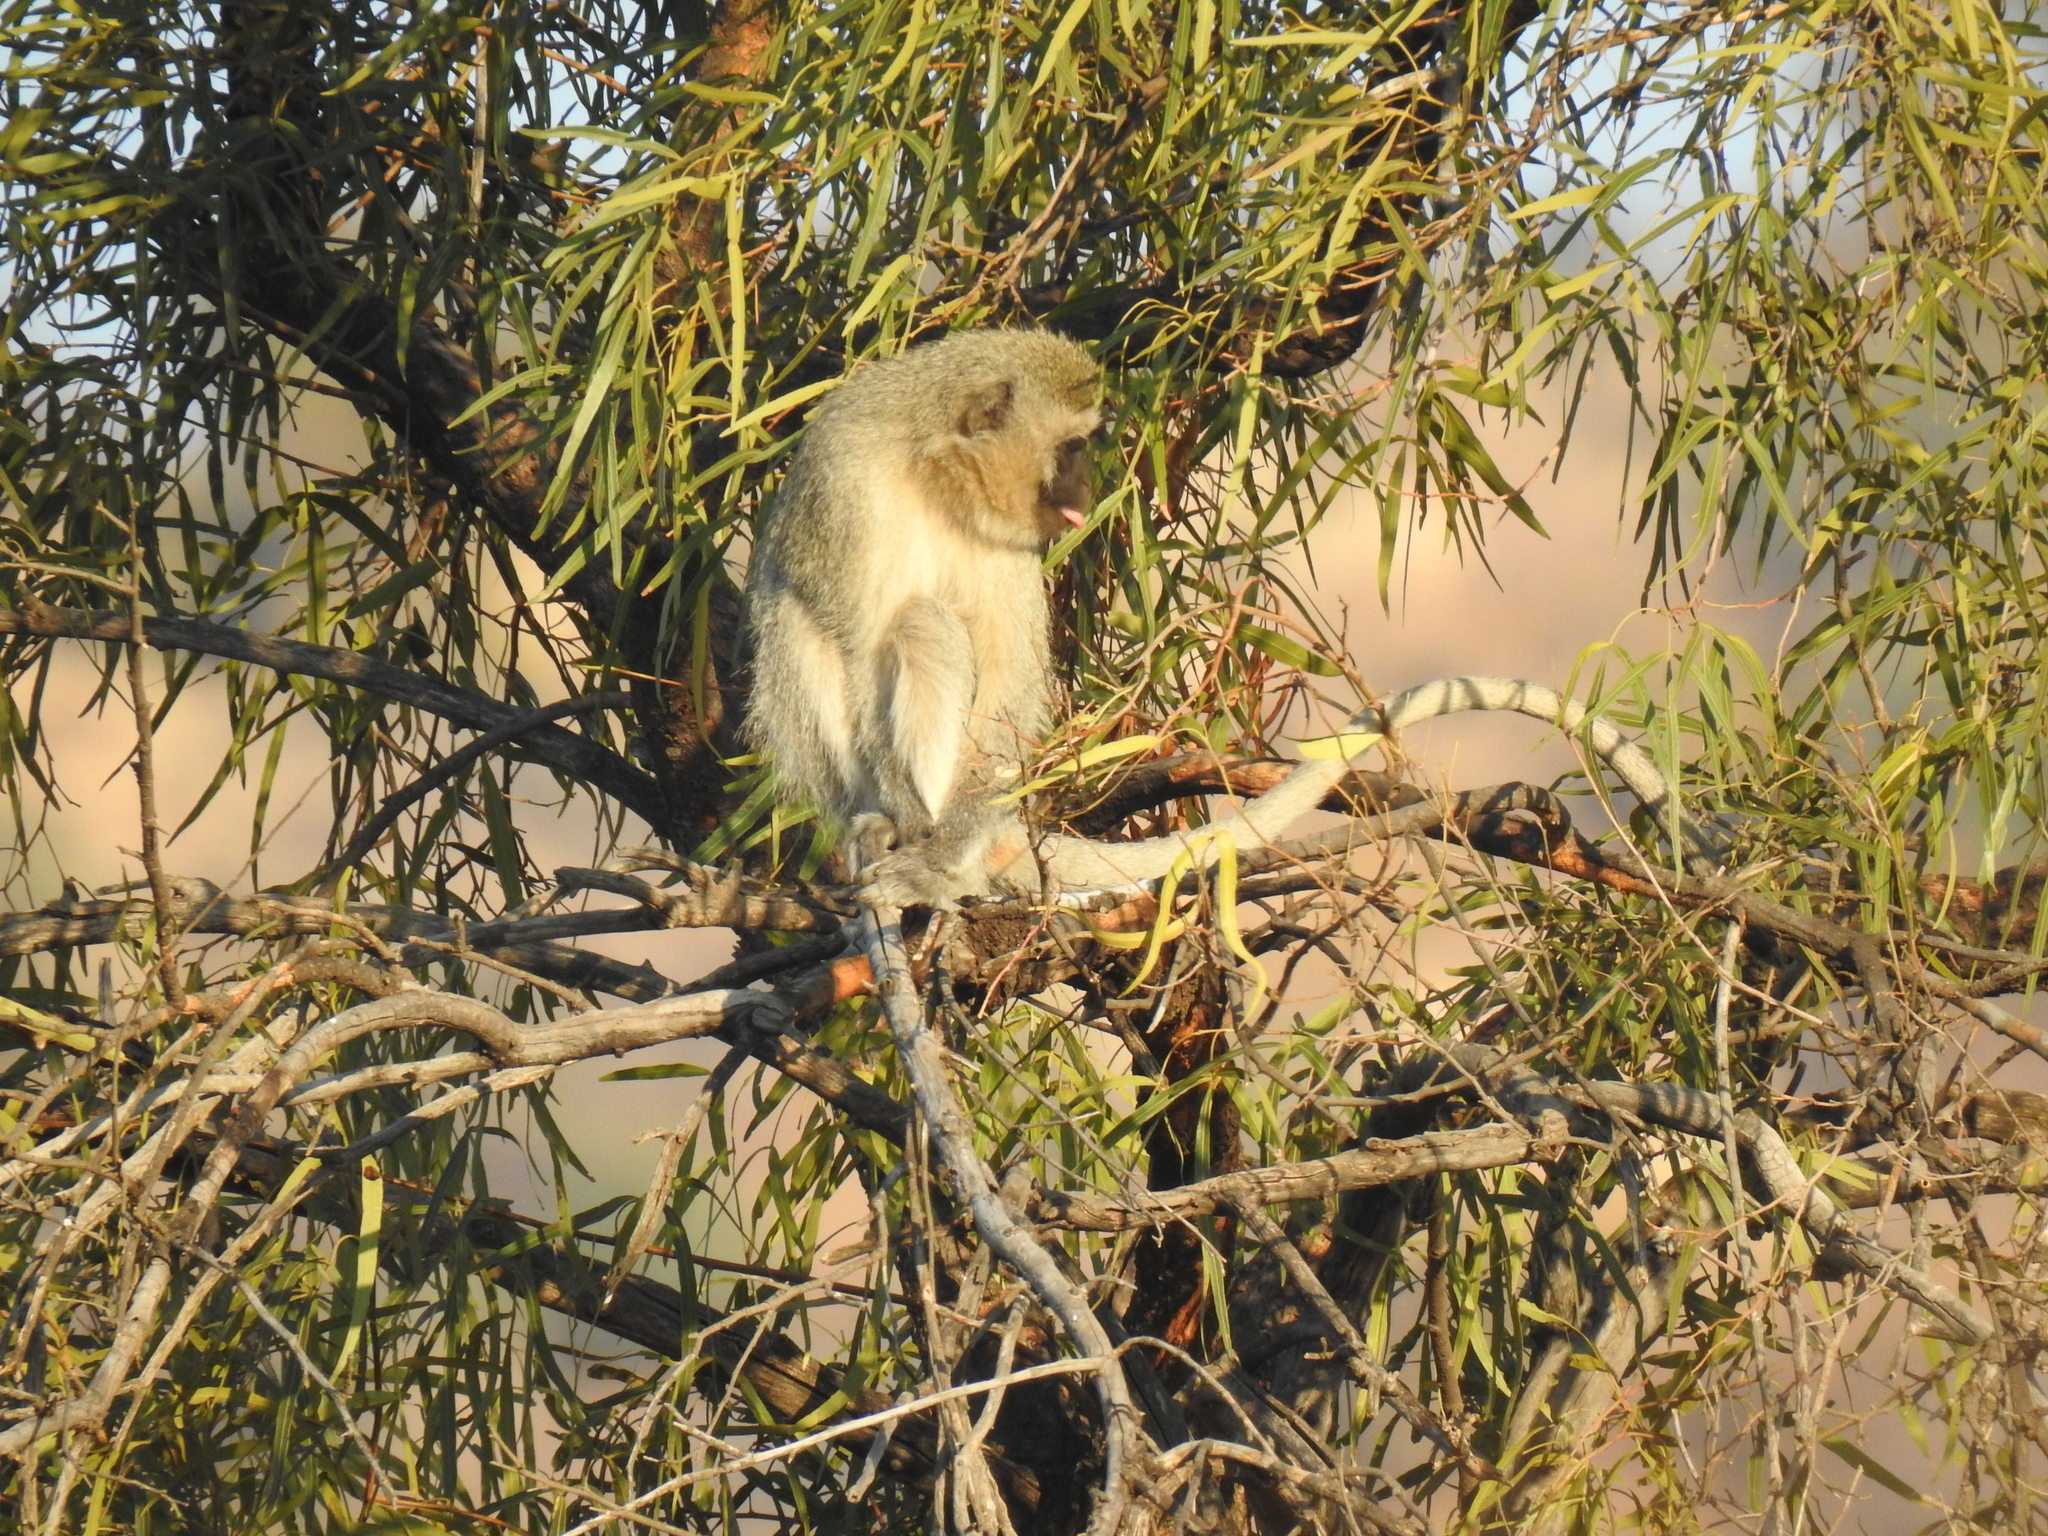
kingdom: Animalia
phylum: Chordata
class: Mammalia
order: Primates
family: Cercopithecidae
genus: Chlorocebus
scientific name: Chlorocebus pygerythrus
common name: Vervet monkey
